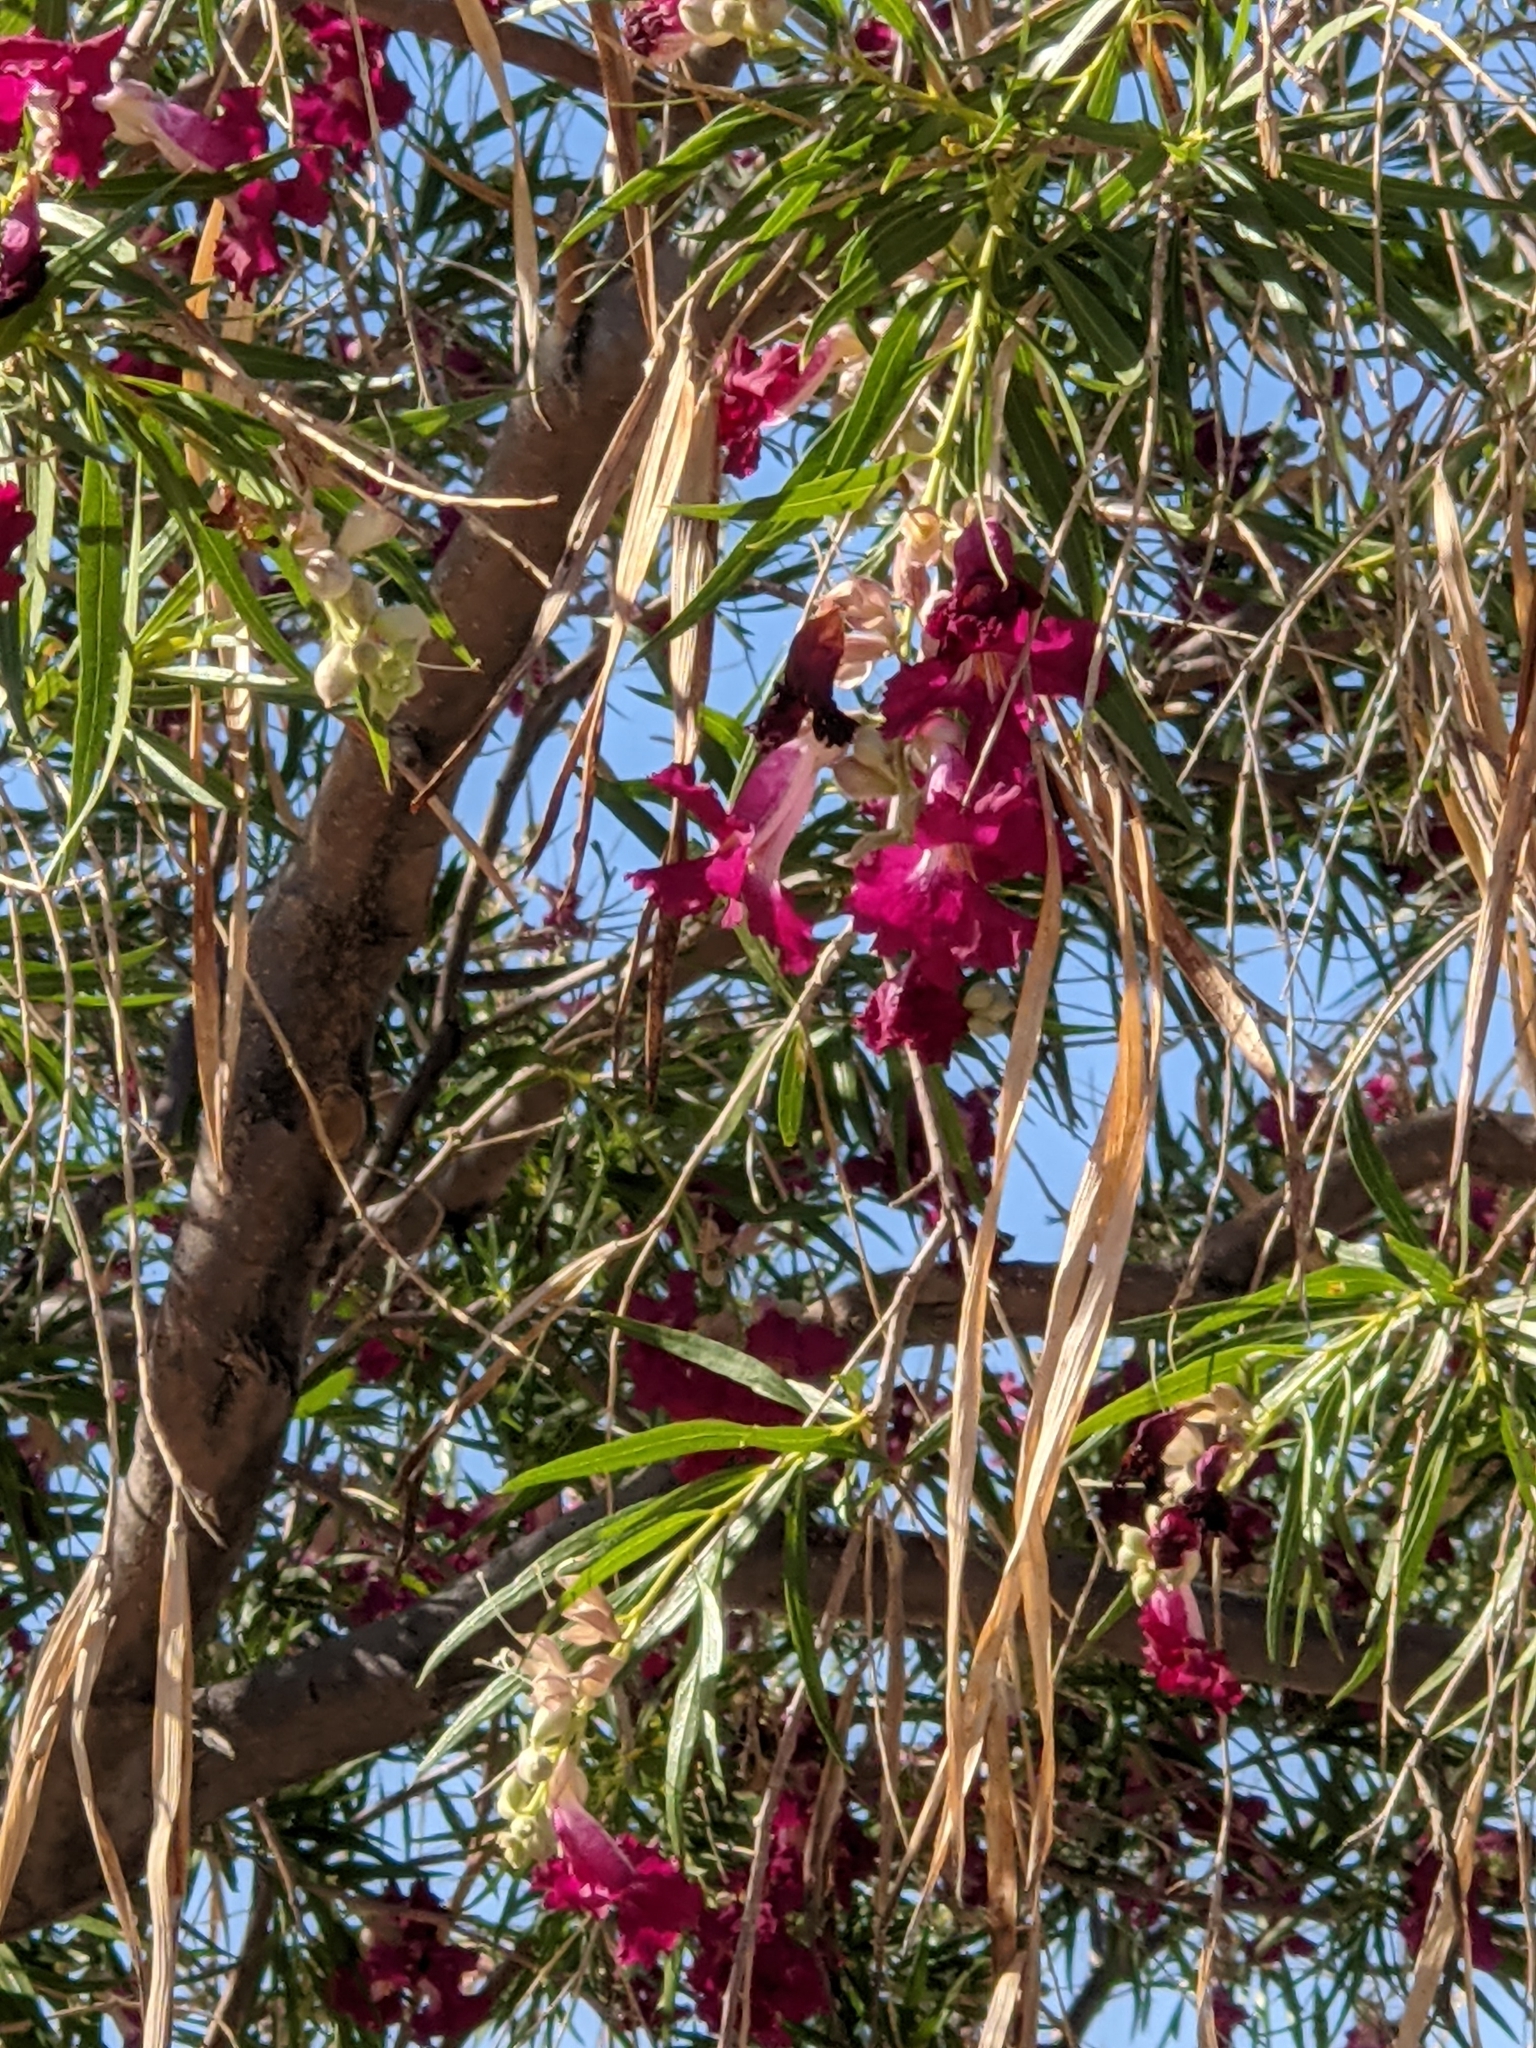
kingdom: Plantae
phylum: Tracheophyta
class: Magnoliopsida
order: Lamiales
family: Bignoniaceae
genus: Chilopsis
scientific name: Chilopsis linearis
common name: Desert-willow
